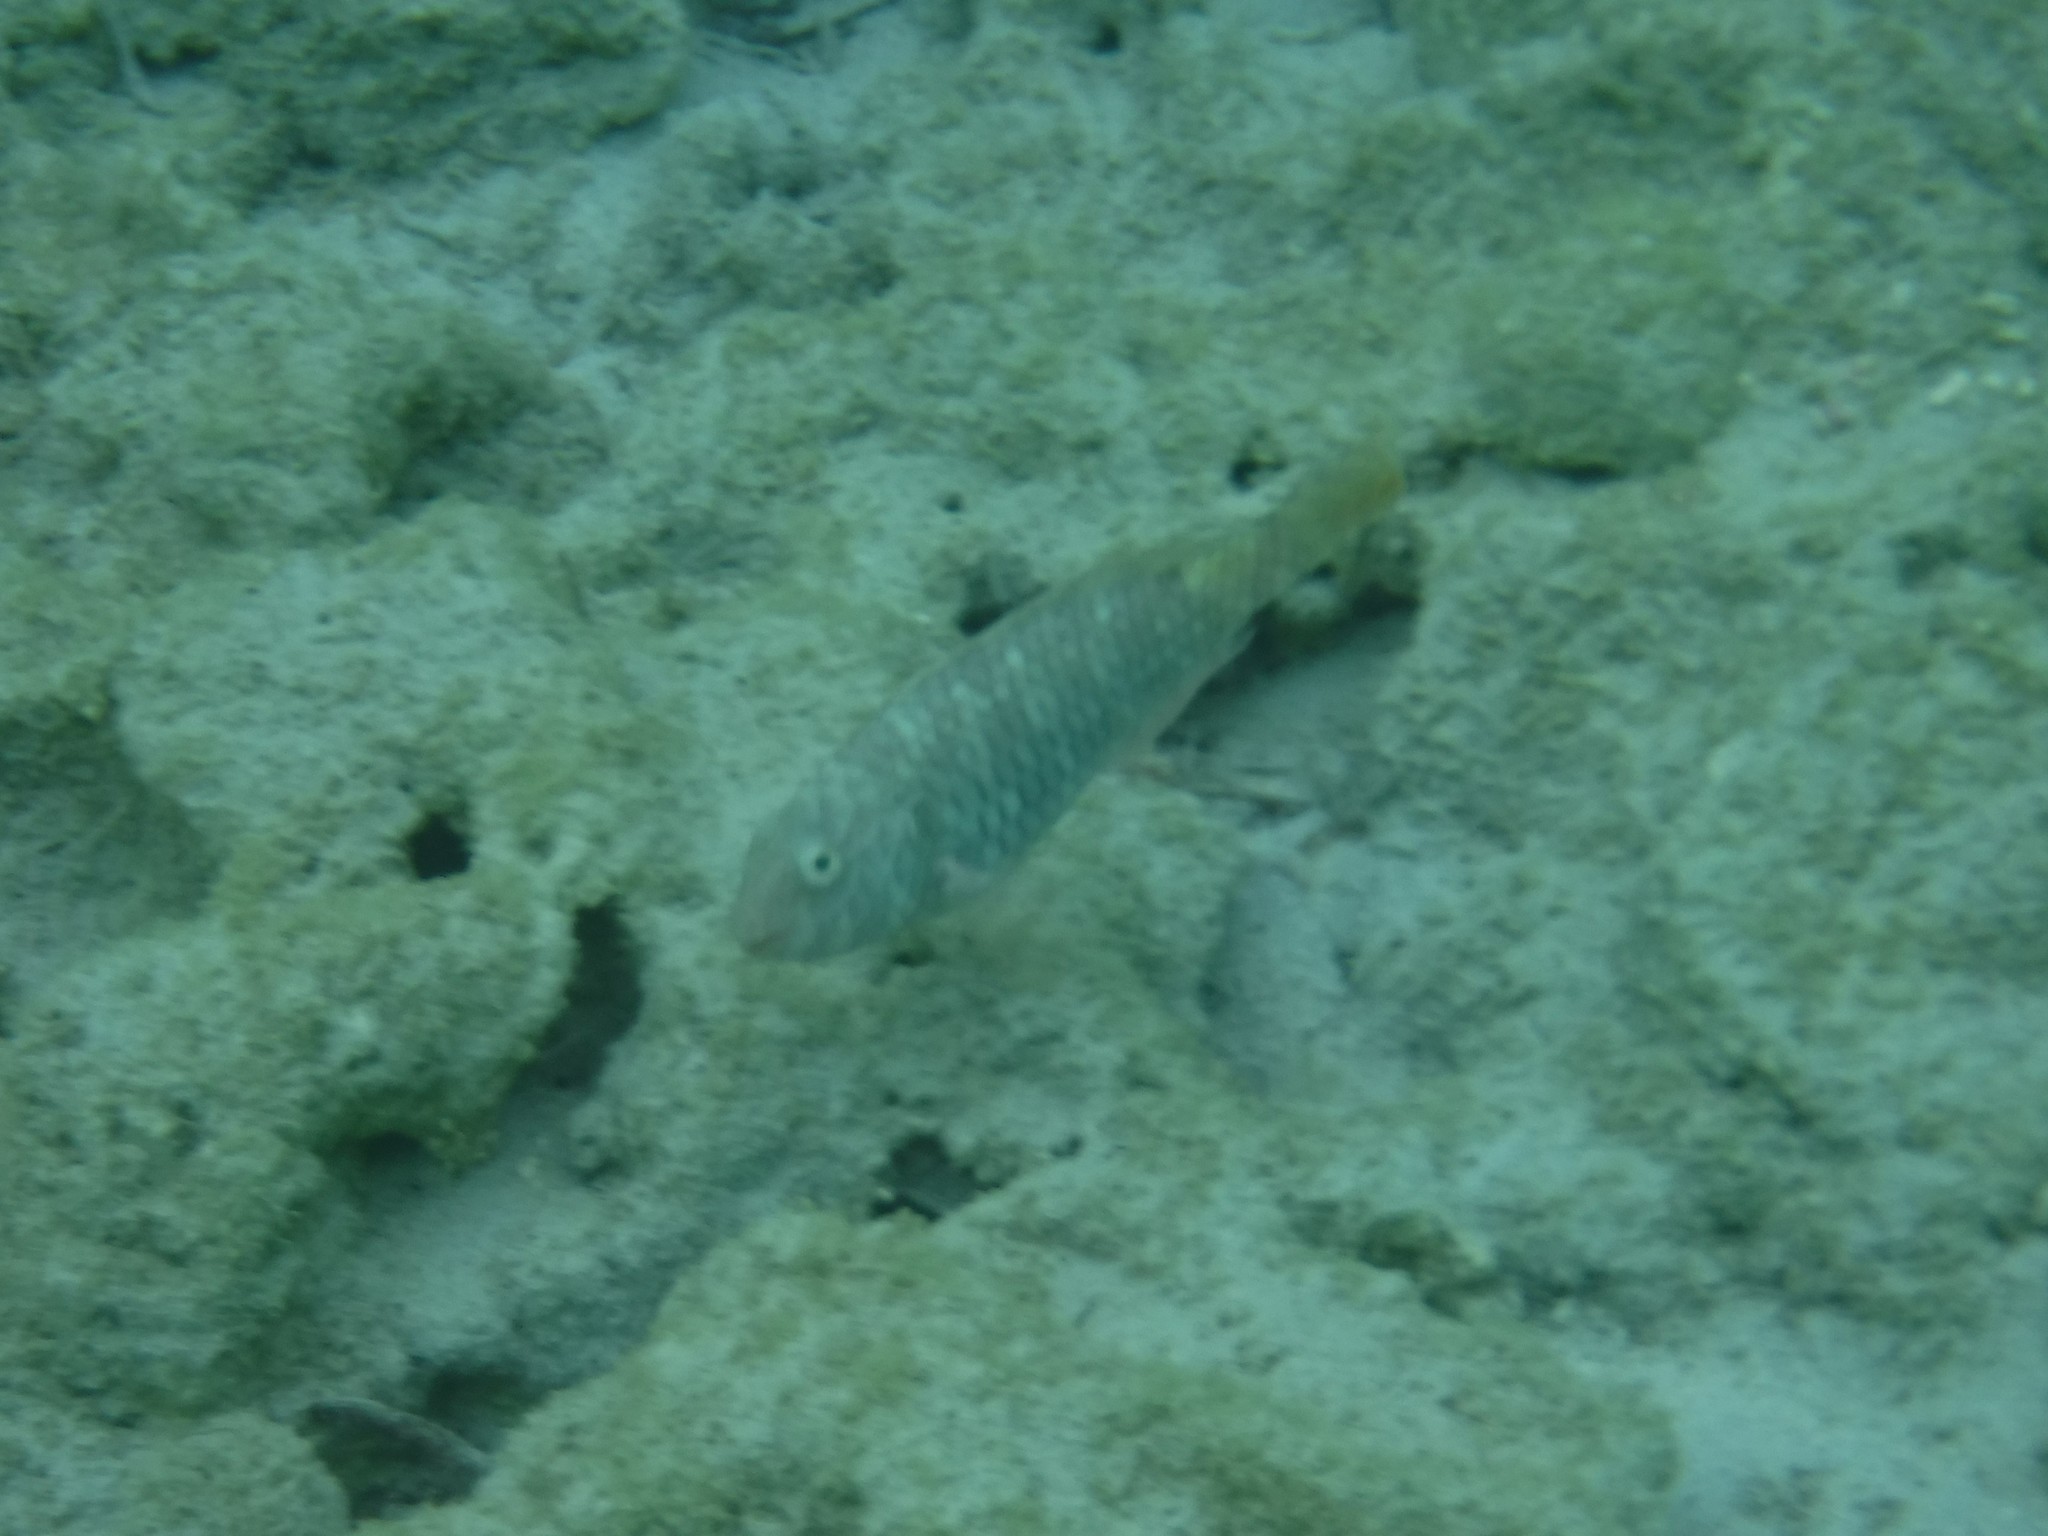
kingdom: Animalia
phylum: Chordata
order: Perciformes
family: Scaridae
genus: Sparisoma
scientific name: Sparisoma rubripinne
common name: Redfin parrotfish
